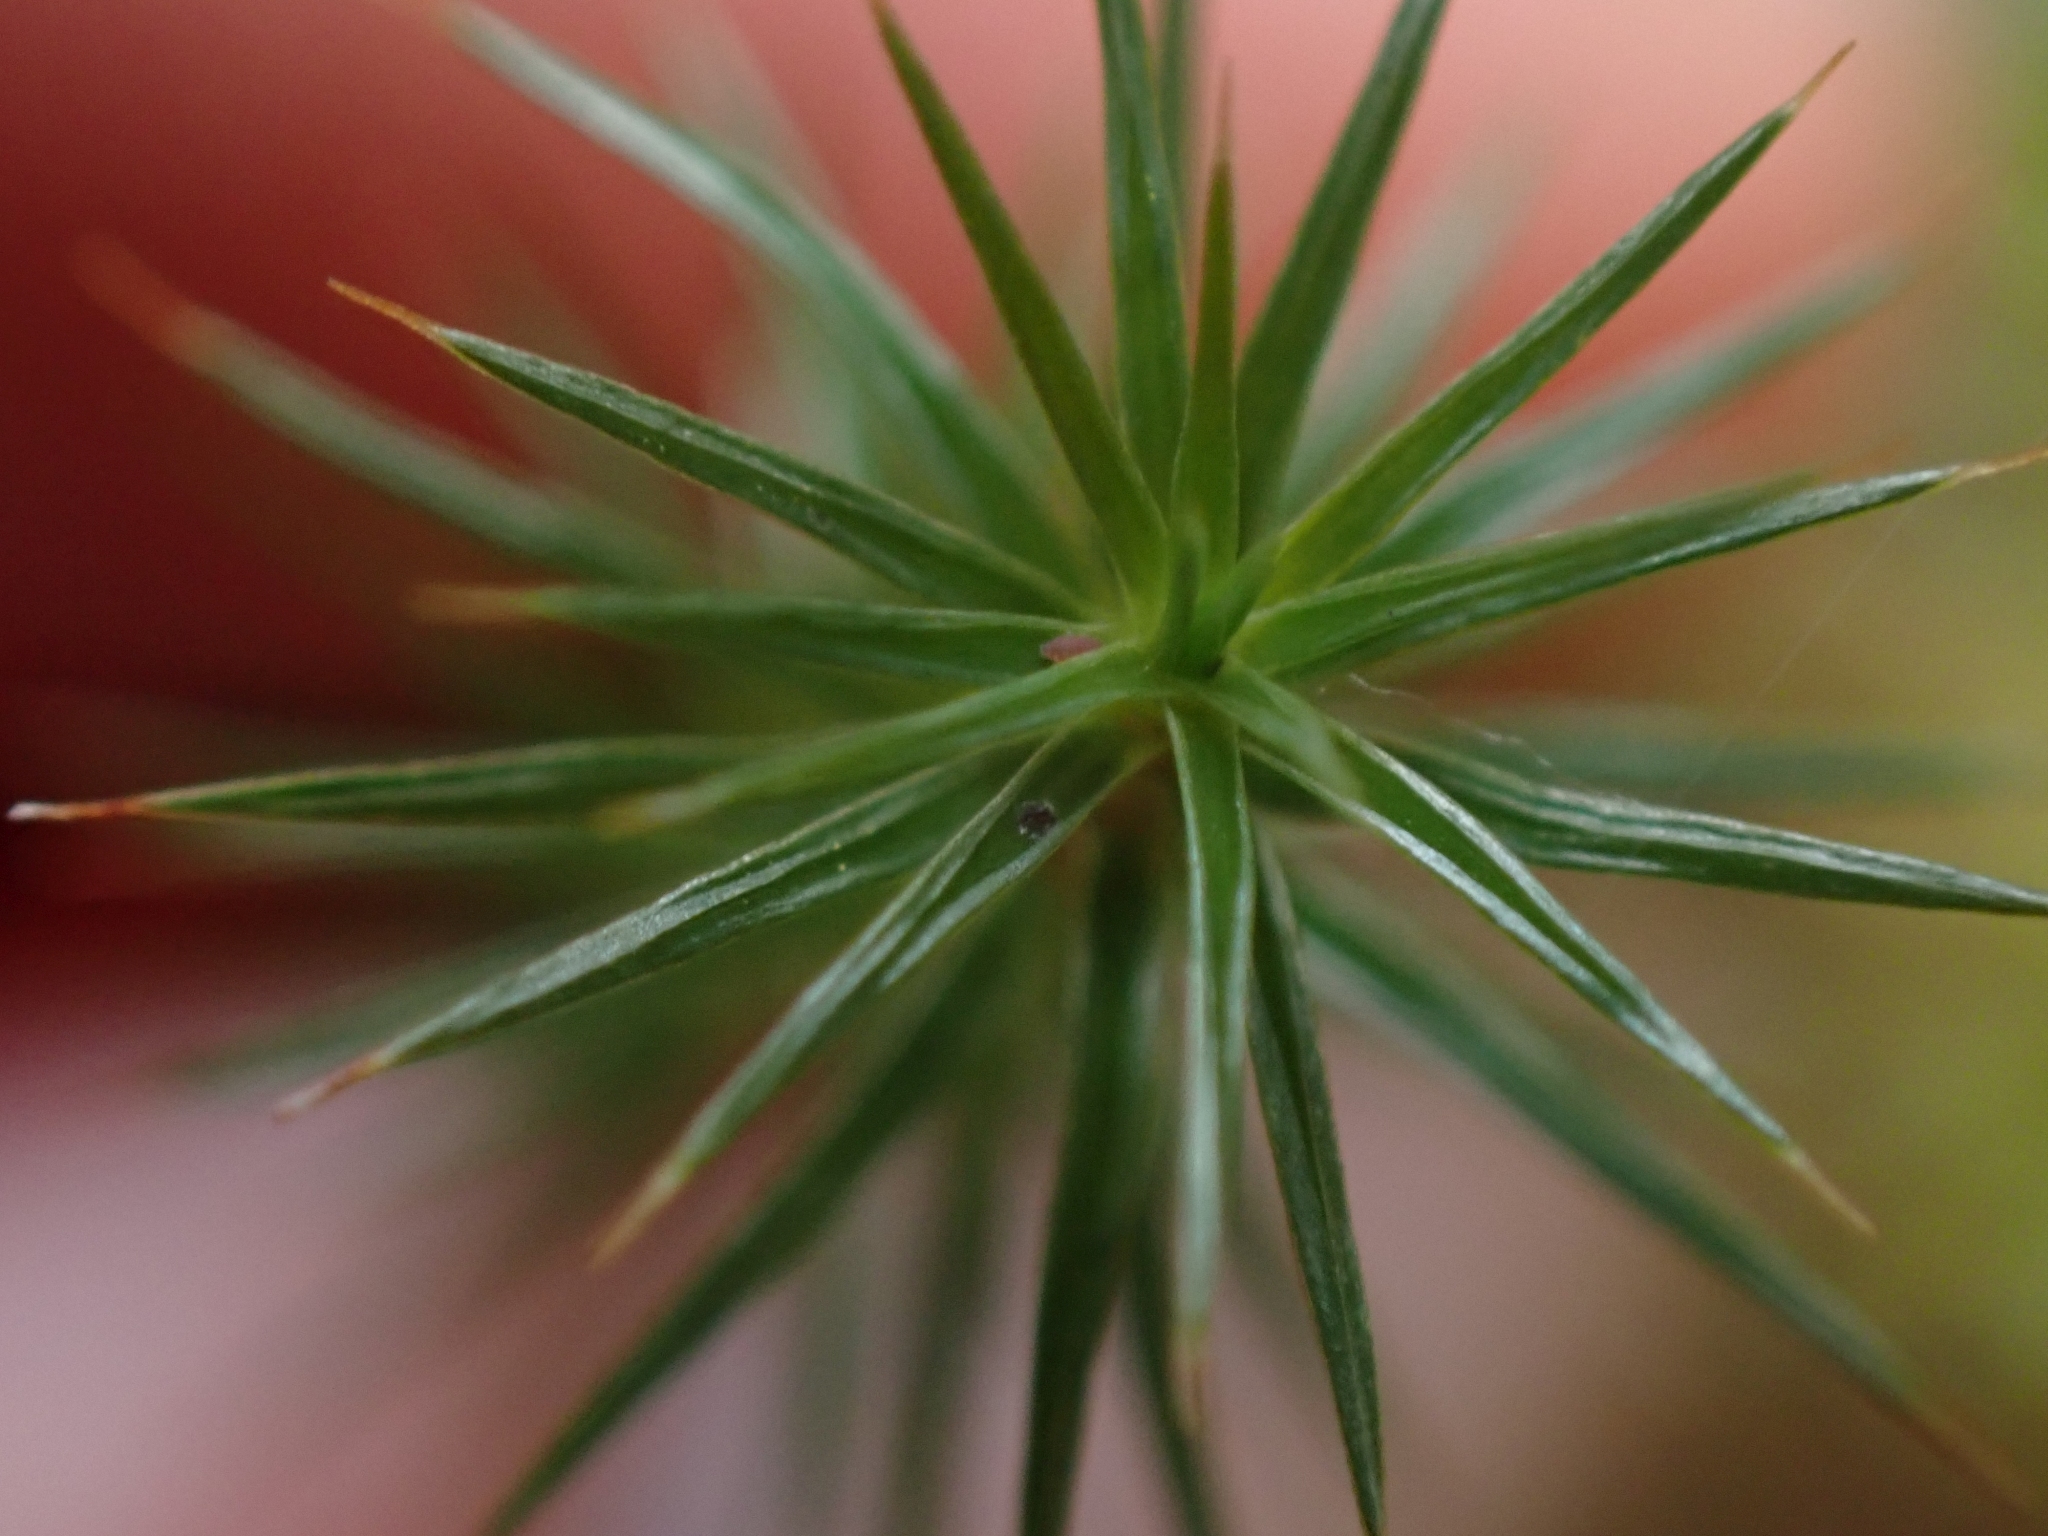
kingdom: Plantae
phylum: Bryophyta
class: Polytrichopsida
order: Polytrichales
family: Polytrichaceae
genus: Polytrichum
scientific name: Polytrichum juniperinum
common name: Juniper haircap moss
